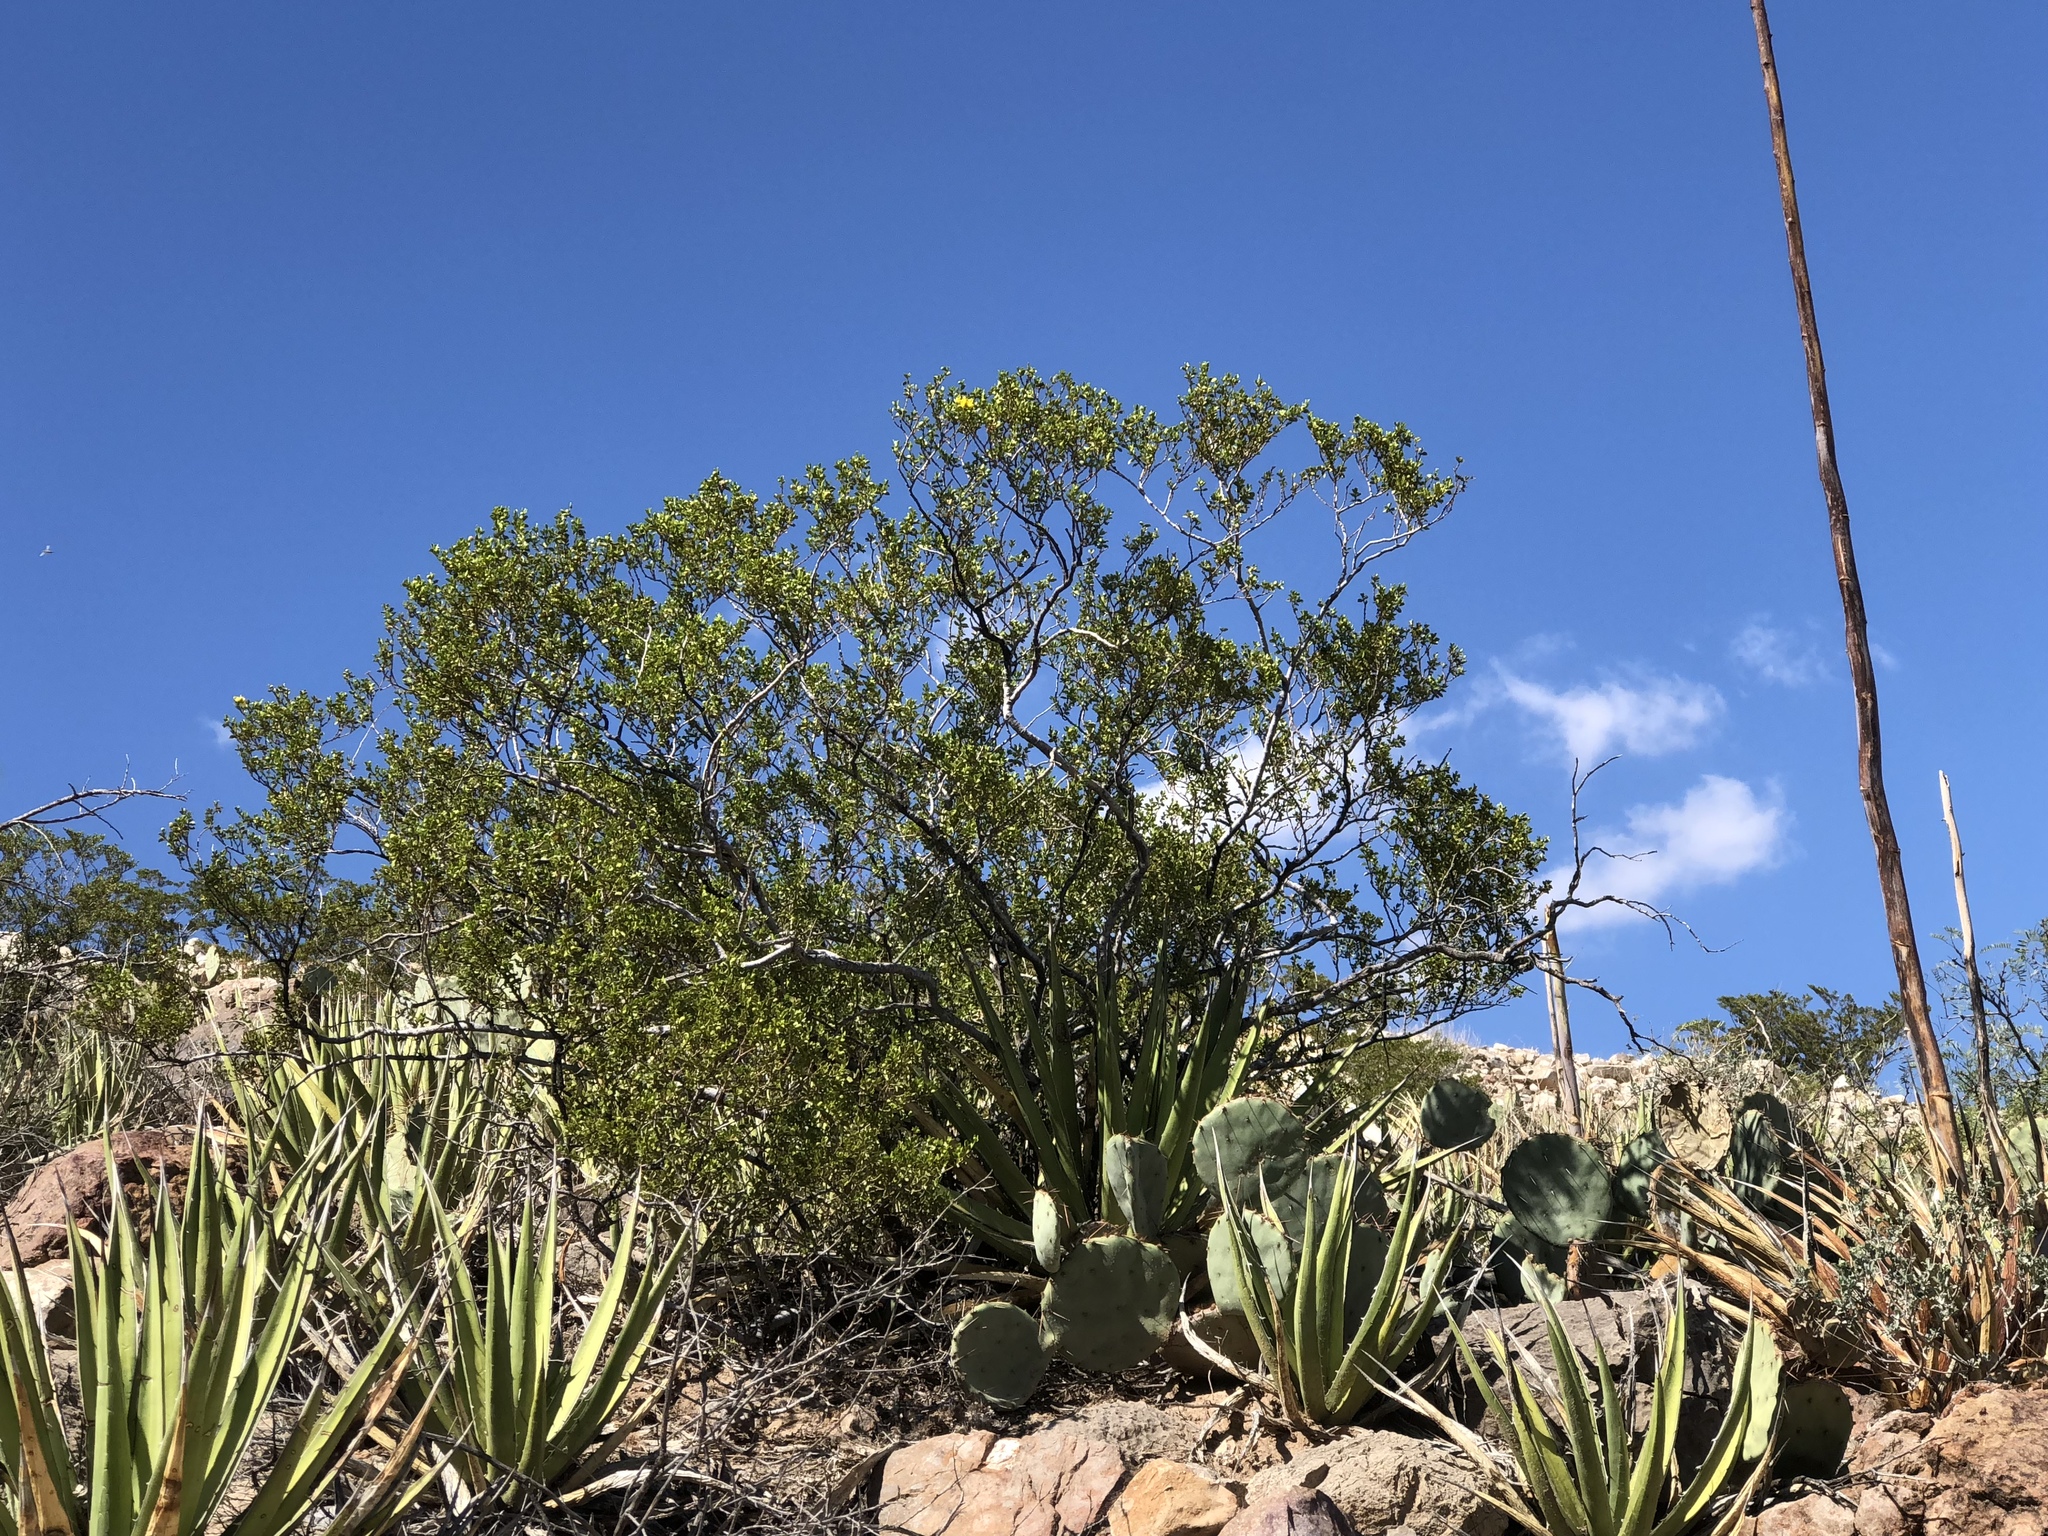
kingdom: Plantae
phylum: Tracheophyta
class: Magnoliopsida
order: Zygophyllales
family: Zygophyllaceae
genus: Larrea
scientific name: Larrea tridentata
